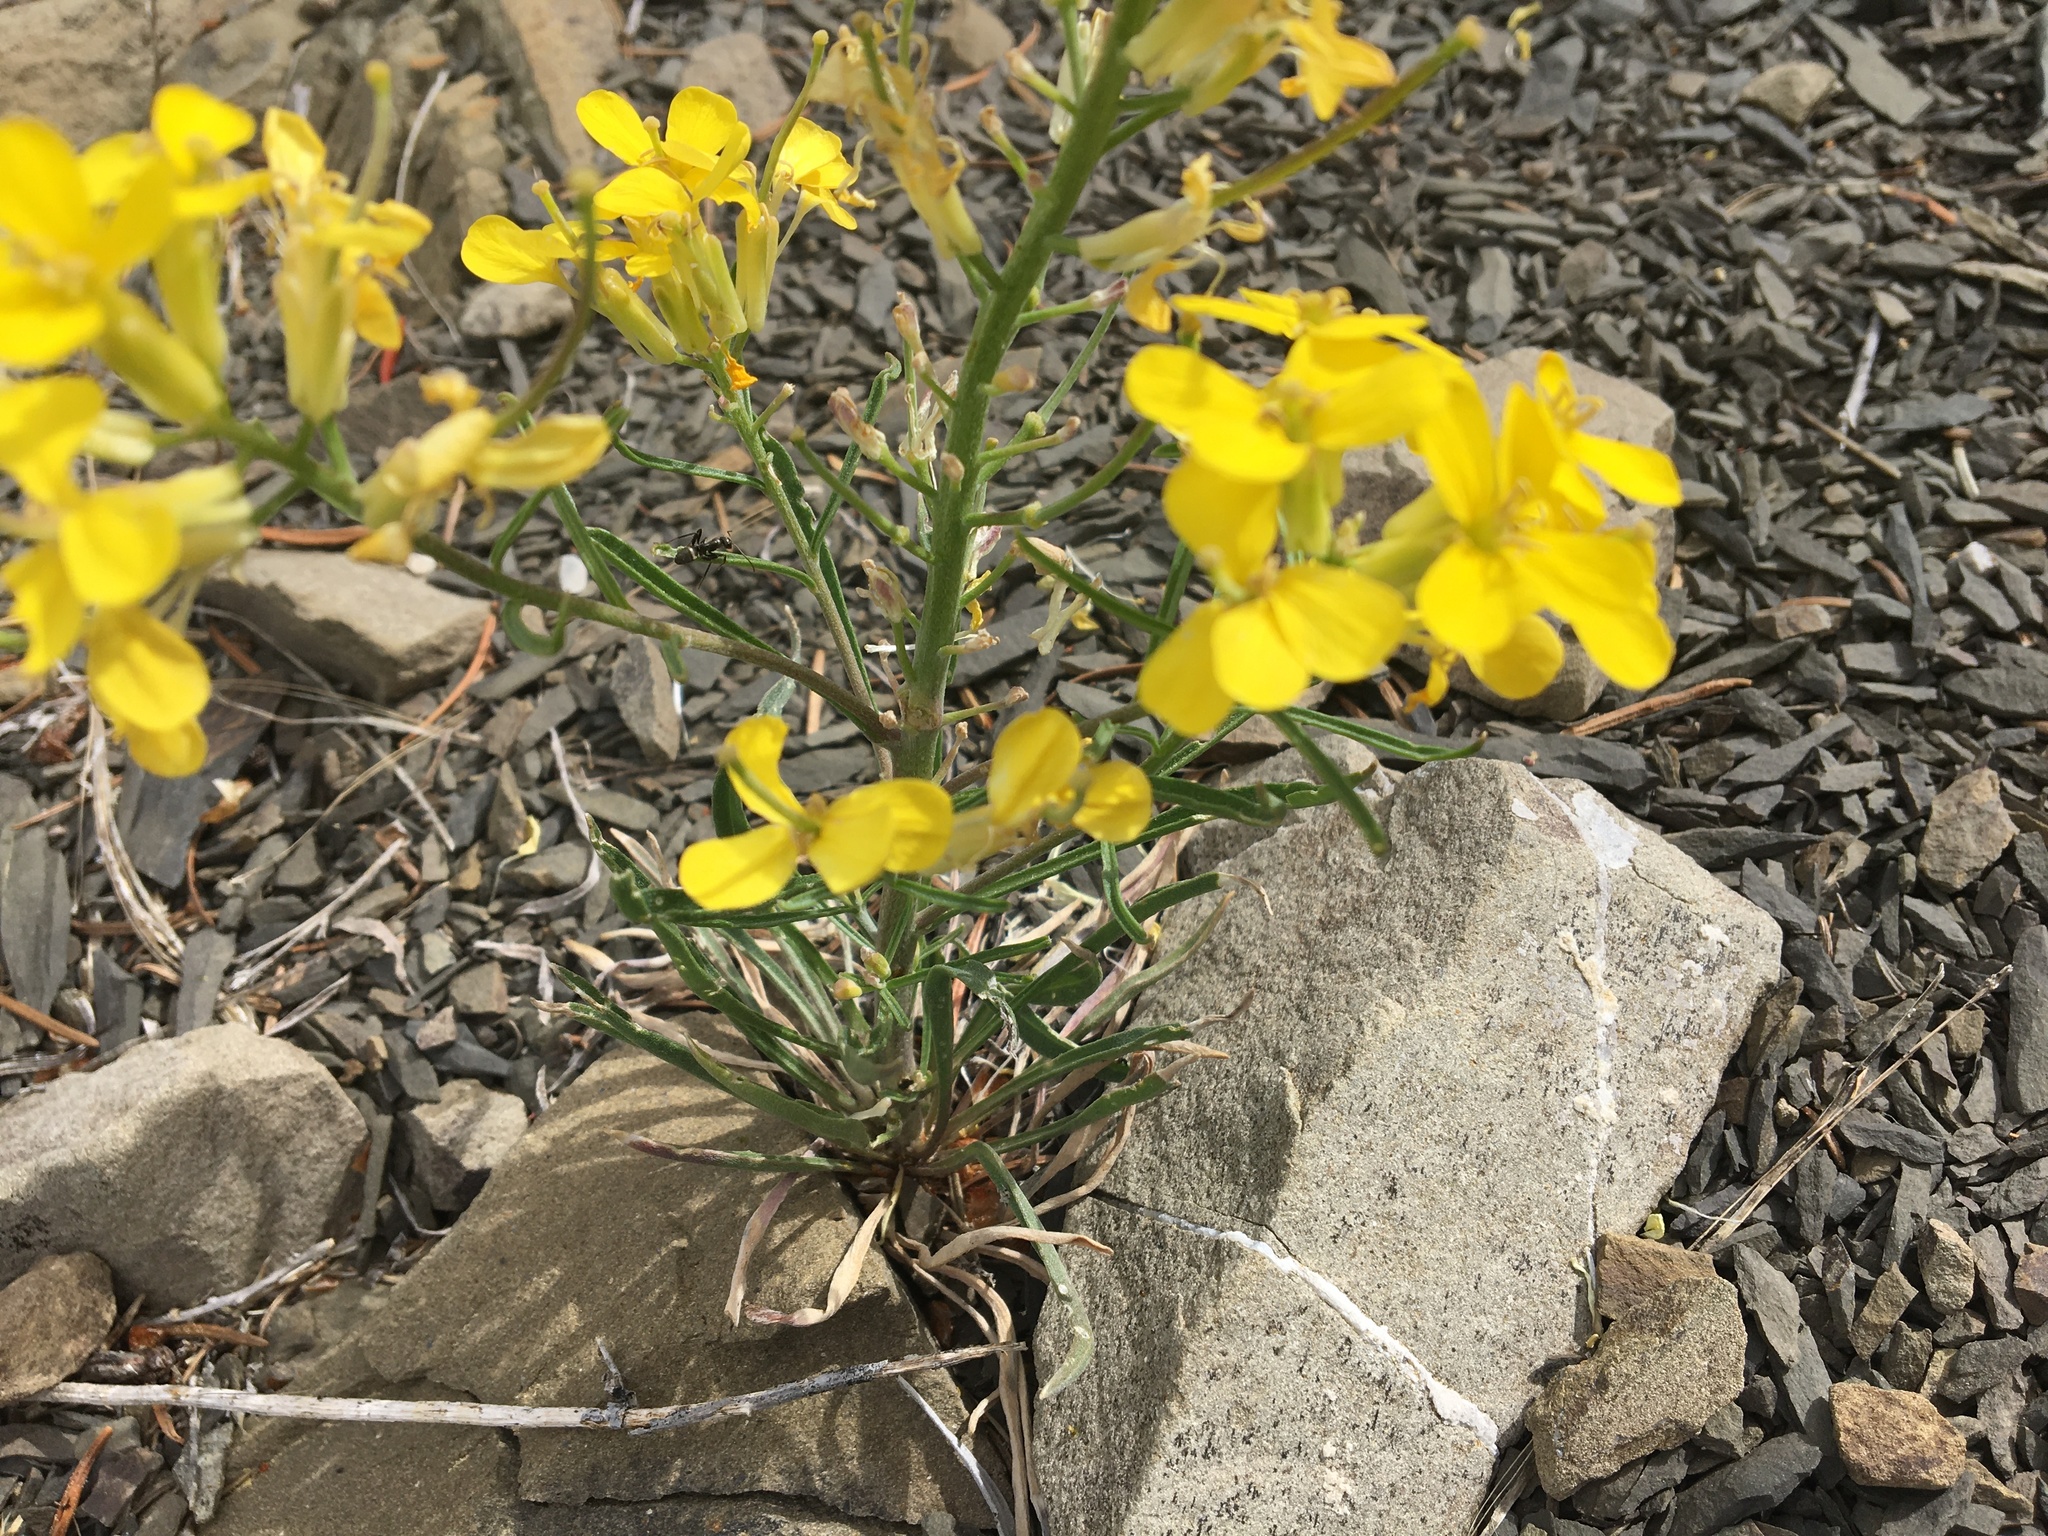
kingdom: Plantae
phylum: Tracheophyta
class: Magnoliopsida
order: Brassicales
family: Brassicaceae
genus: Erysimum
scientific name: Erysimum capitatum
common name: Western wallflower
